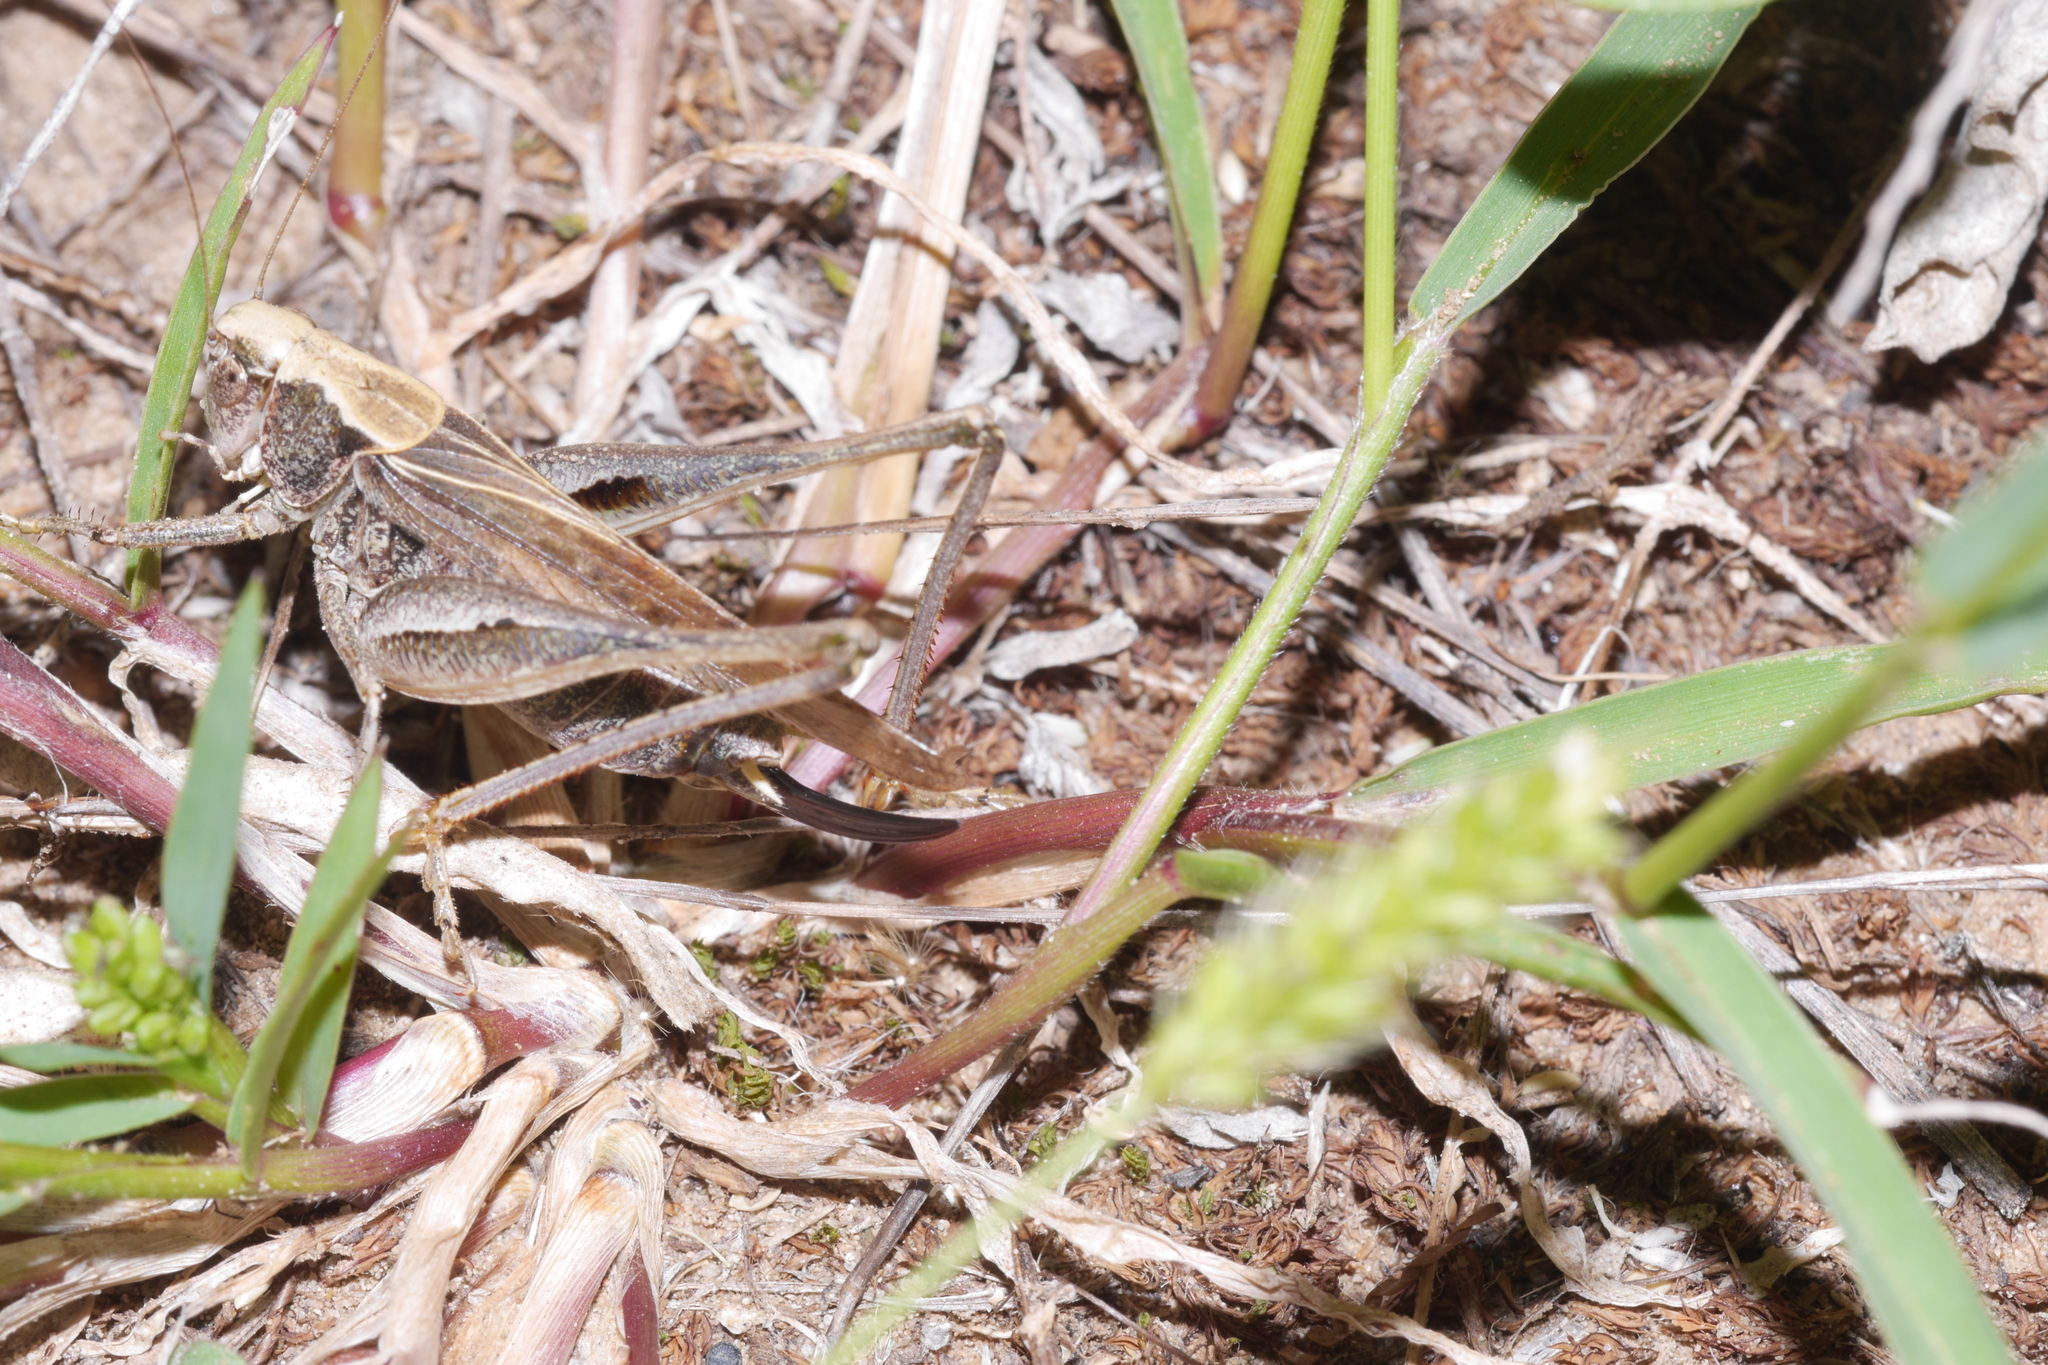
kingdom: Animalia
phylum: Arthropoda
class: Insecta
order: Orthoptera
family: Tettigoniidae
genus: Platycleis
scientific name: Platycleis albopunctata
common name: Grey bush-cricket
